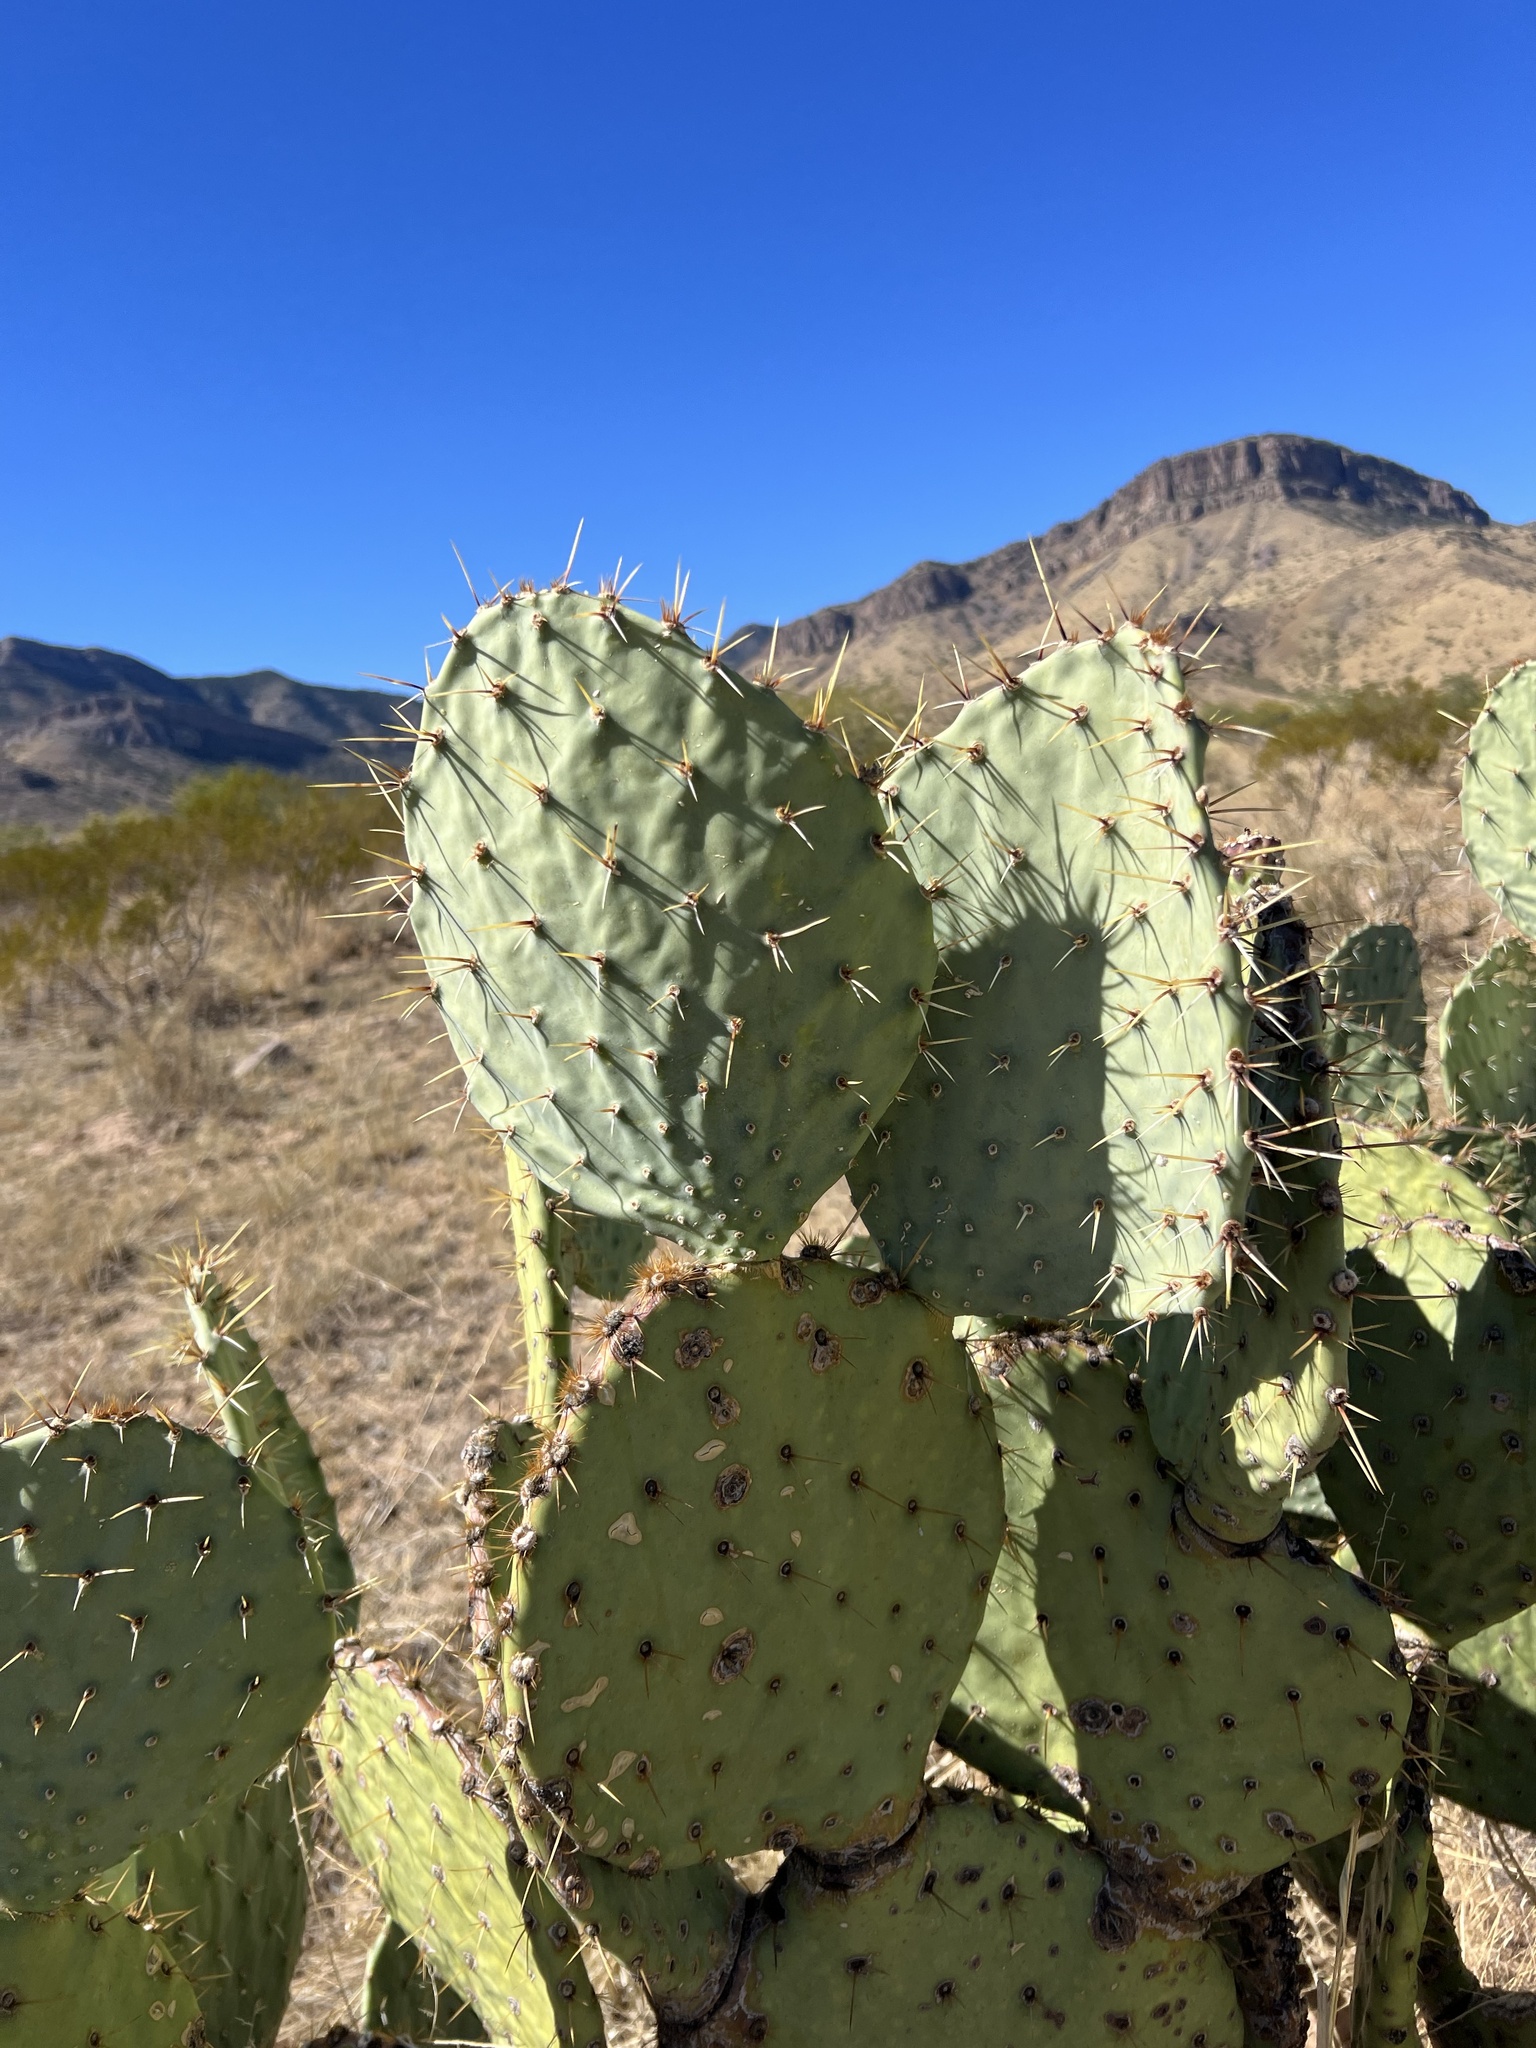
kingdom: Plantae
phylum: Tracheophyta
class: Magnoliopsida
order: Caryophyllales
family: Cactaceae
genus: Opuntia
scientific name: Opuntia engelmannii
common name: Cactus-apple
